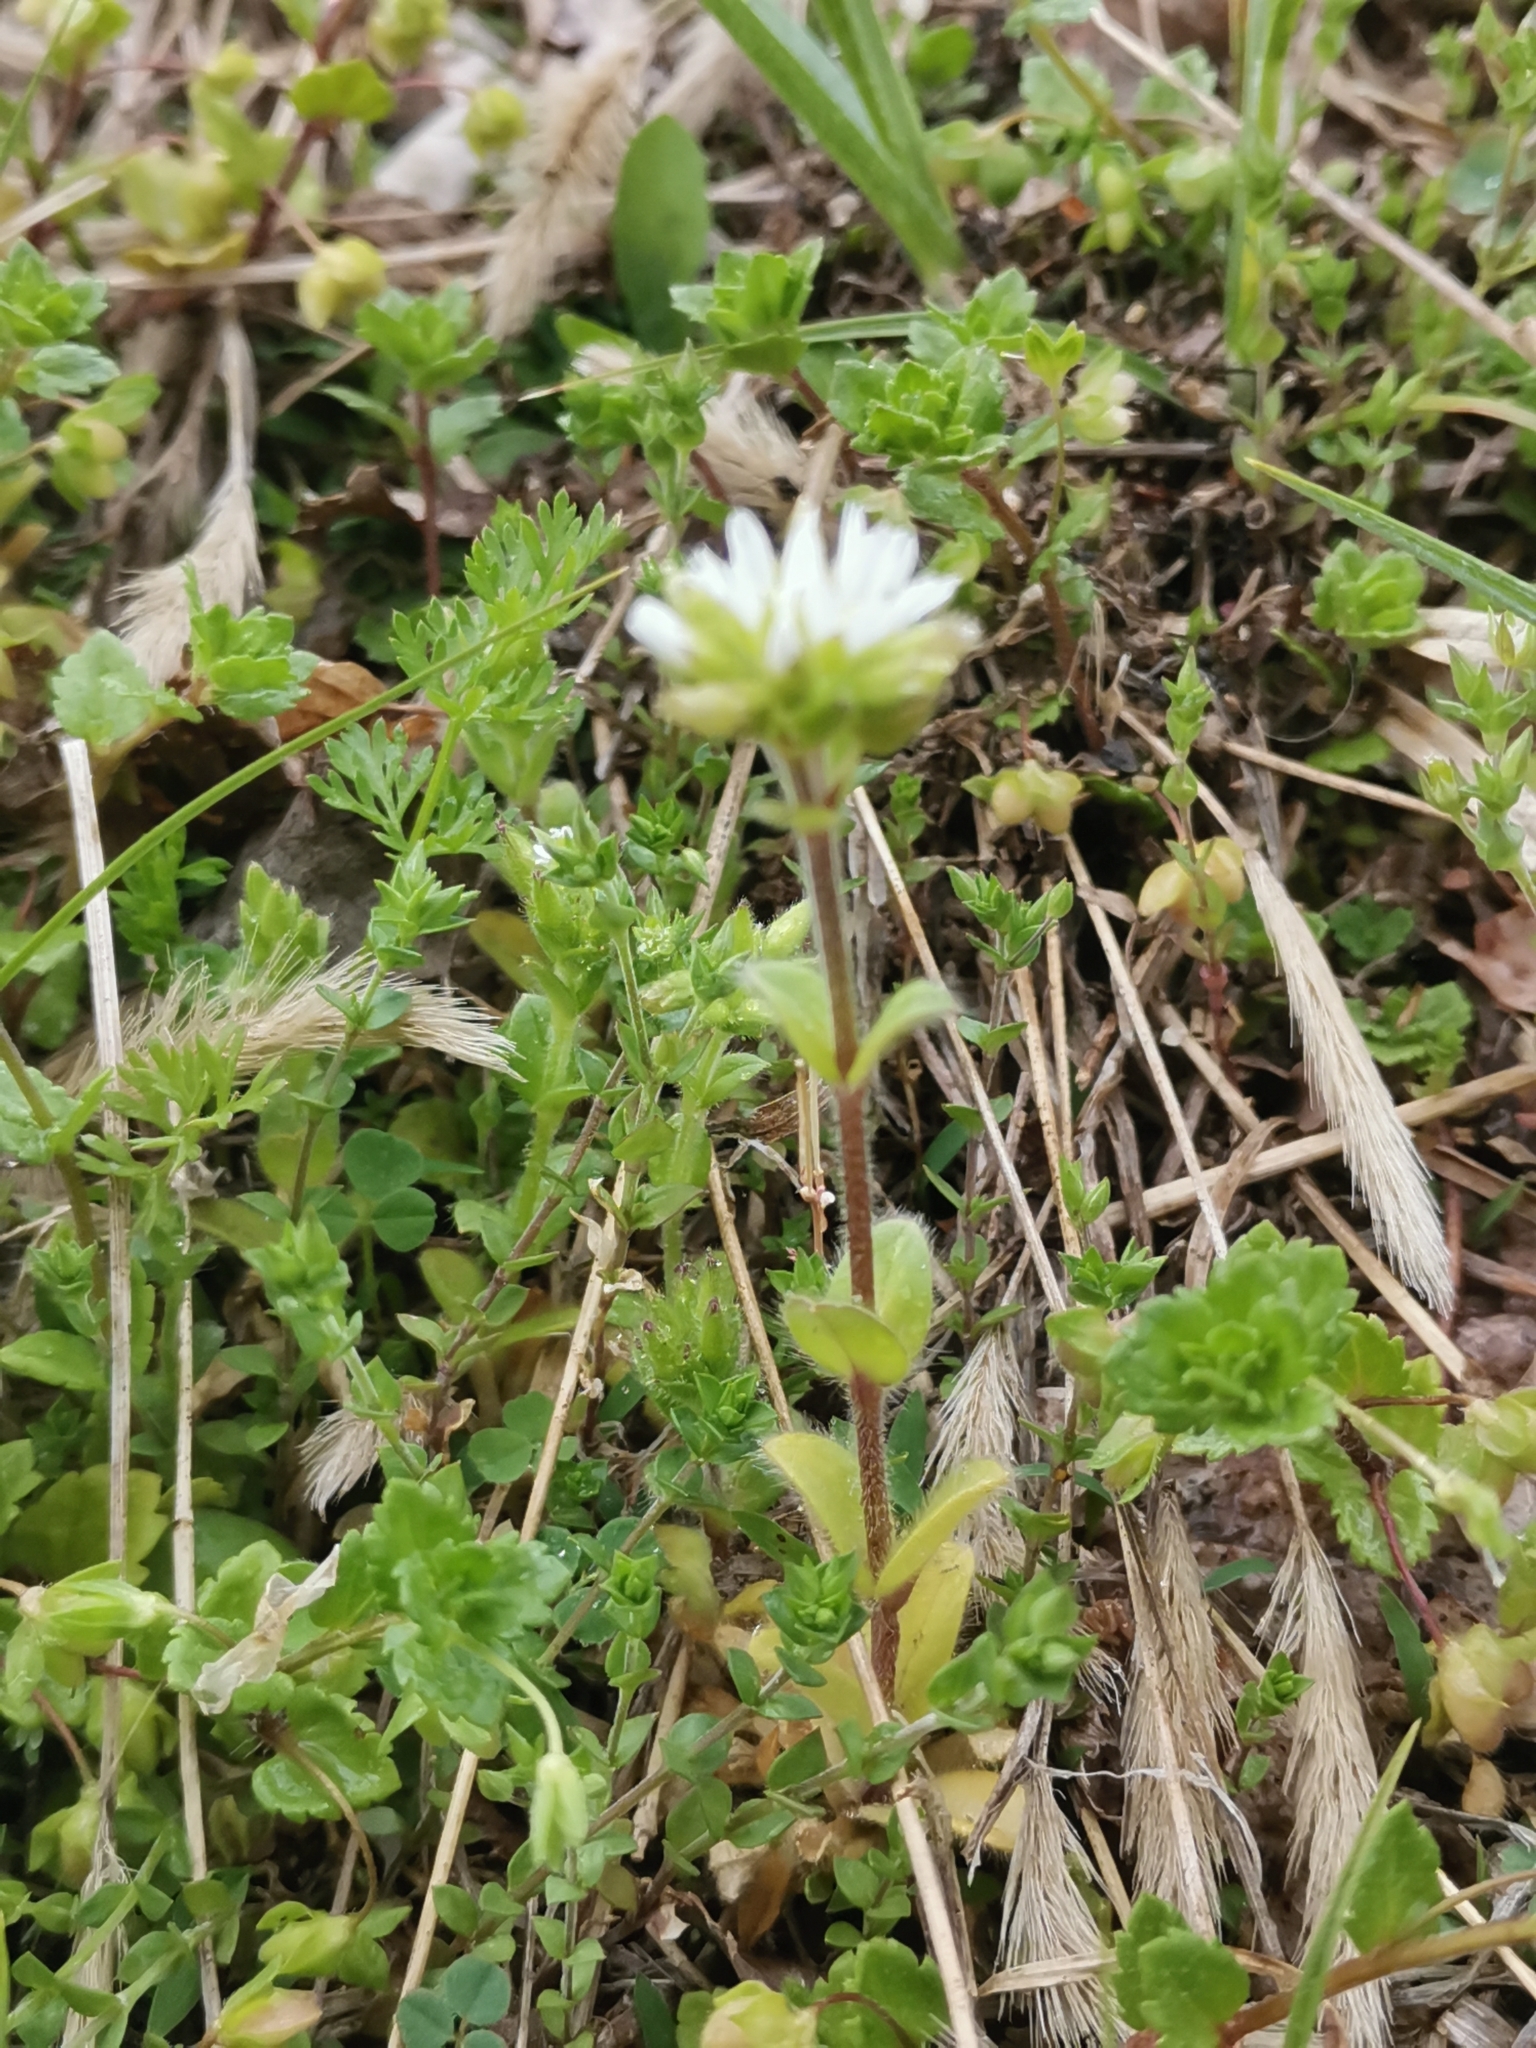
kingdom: Plantae
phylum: Tracheophyta
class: Magnoliopsida
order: Caryophyllales
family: Caryophyllaceae
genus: Cerastium
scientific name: Cerastium glomeratum
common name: Sticky chickweed
